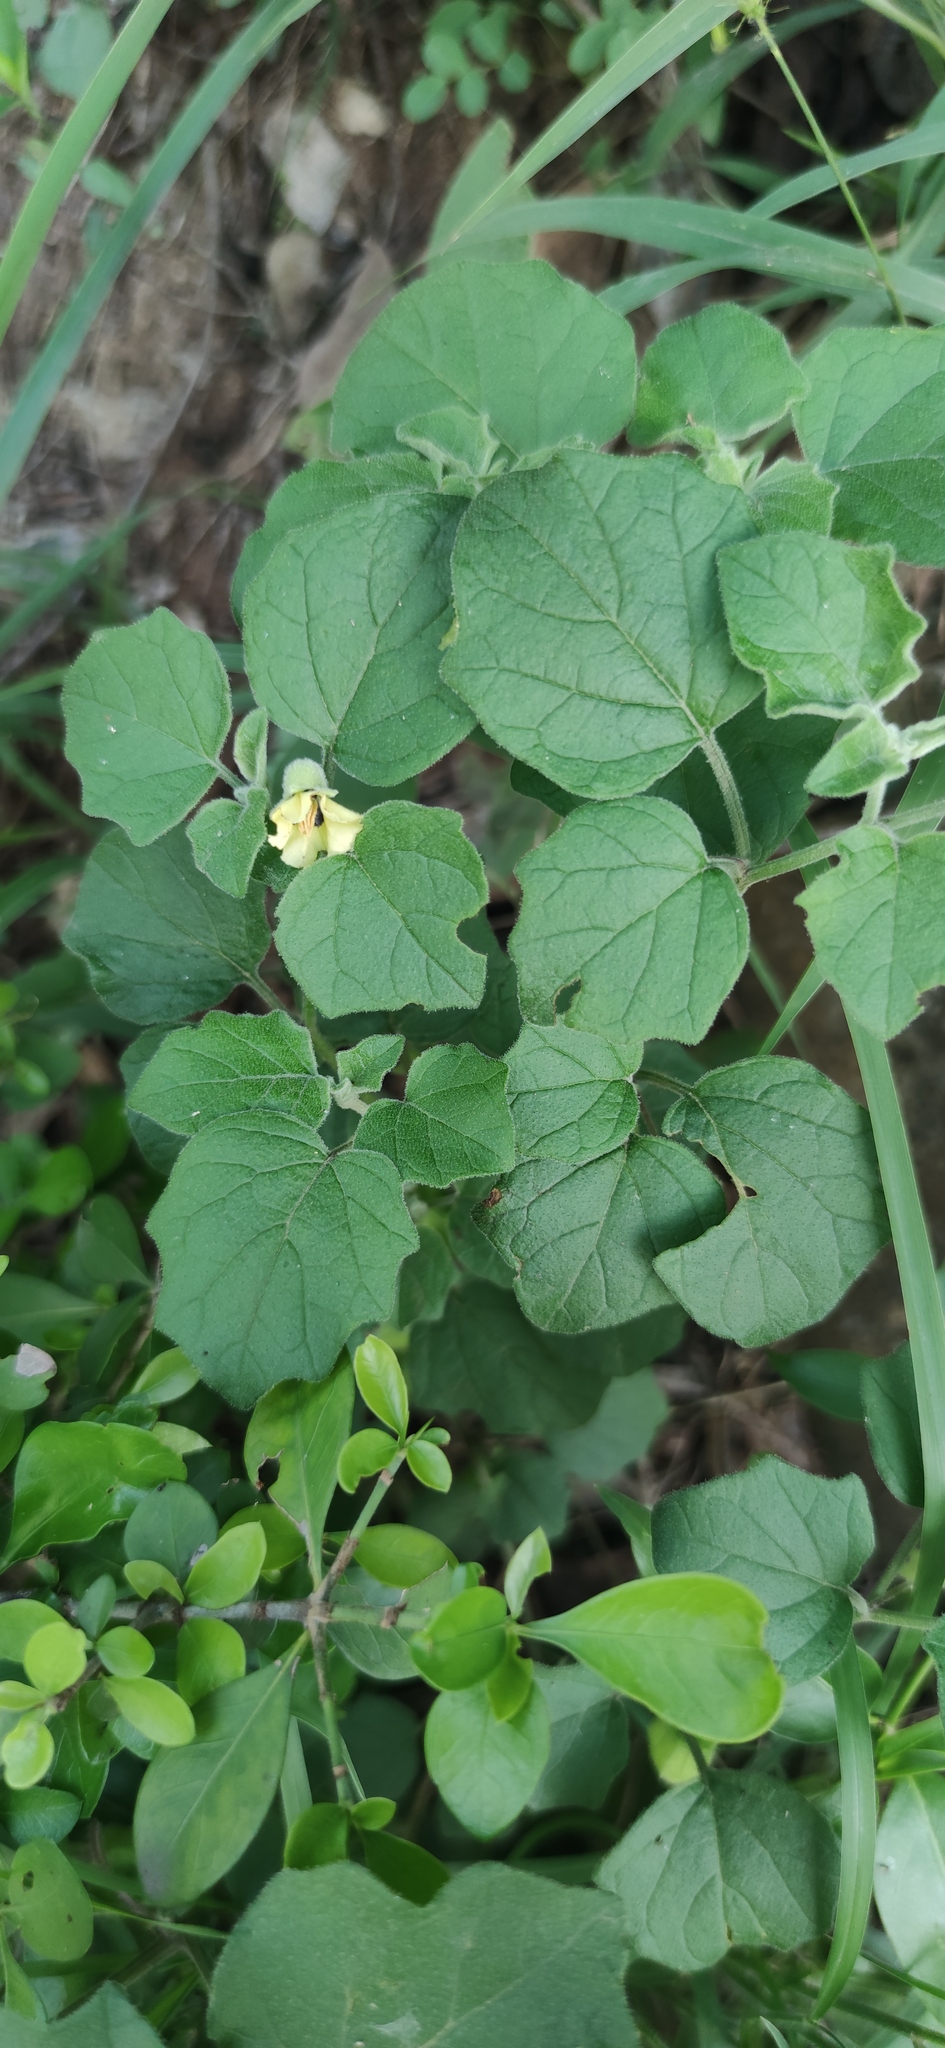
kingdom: Plantae
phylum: Tracheophyta
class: Magnoliopsida
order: Solanales
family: Solanaceae
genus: Physalis
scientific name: Physalis cinerascens
